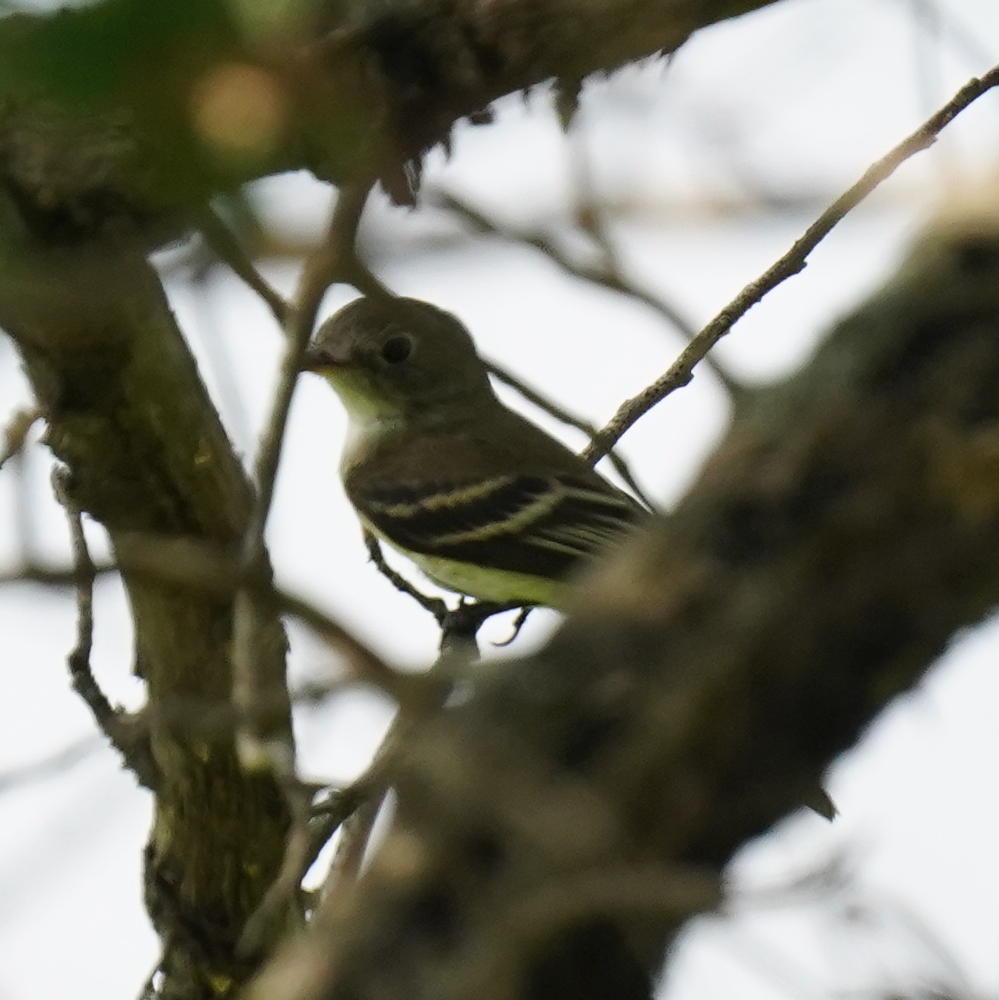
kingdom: Animalia
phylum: Chordata
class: Aves
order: Passeriformes
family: Tyrannidae
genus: Empidonax
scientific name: Empidonax minimus
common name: Least flycatcher
